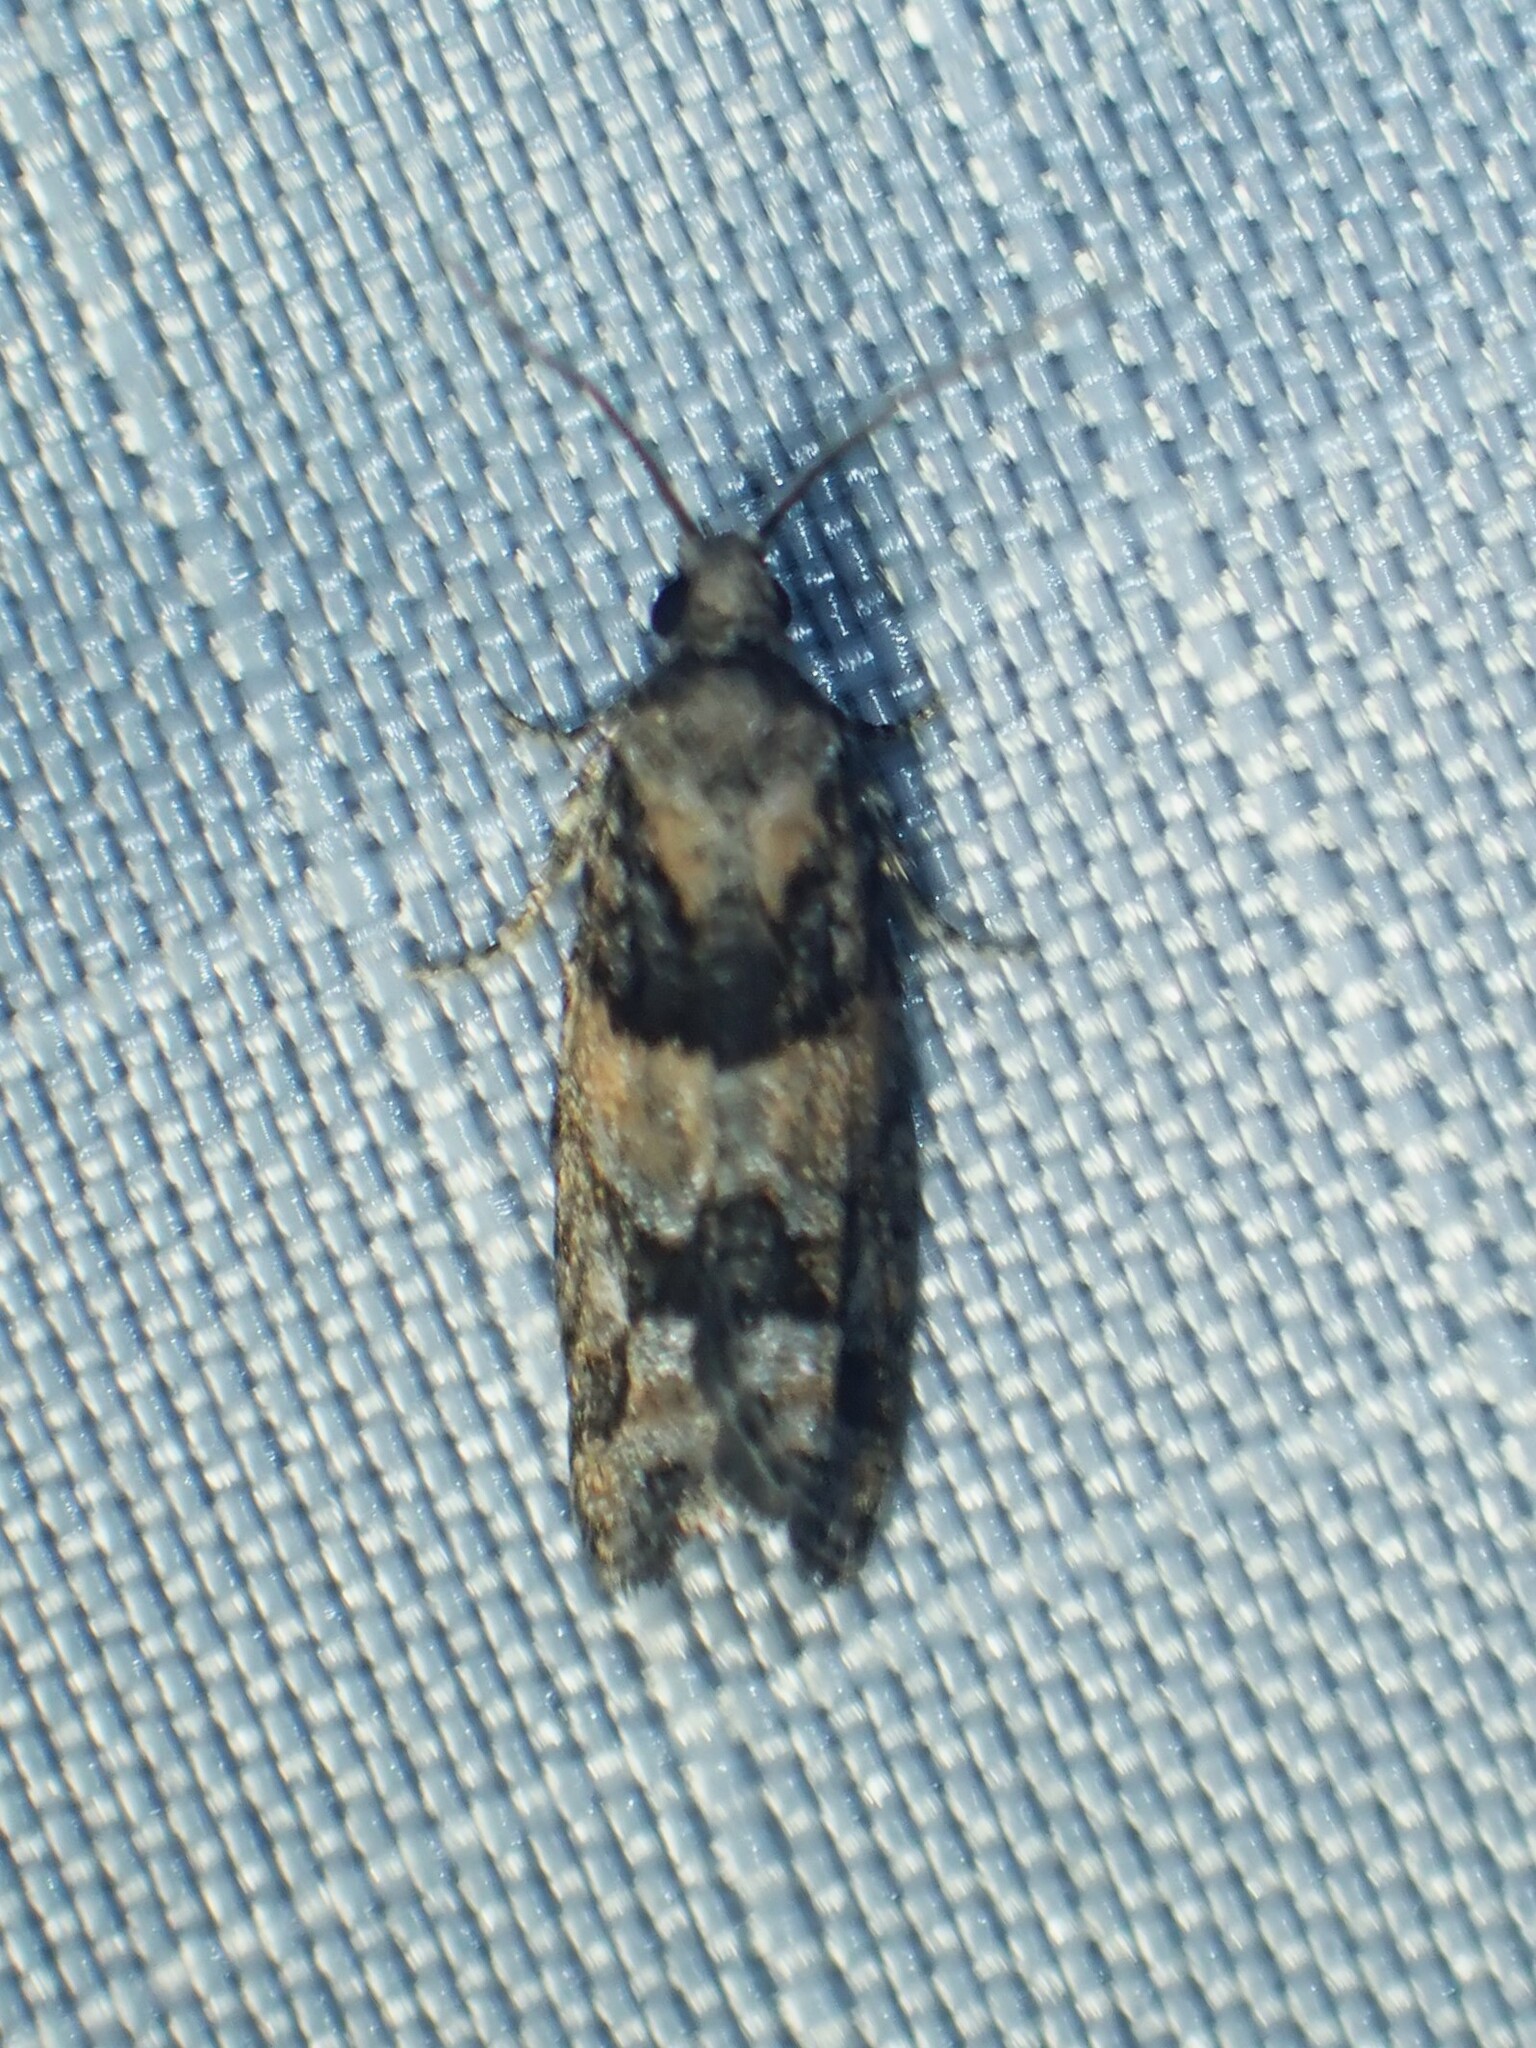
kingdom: Animalia
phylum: Arthropoda
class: Insecta
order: Lepidoptera
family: Tortricidae
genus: Epinotia
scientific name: Epinotia radicana
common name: Red-striped needleworm moth
